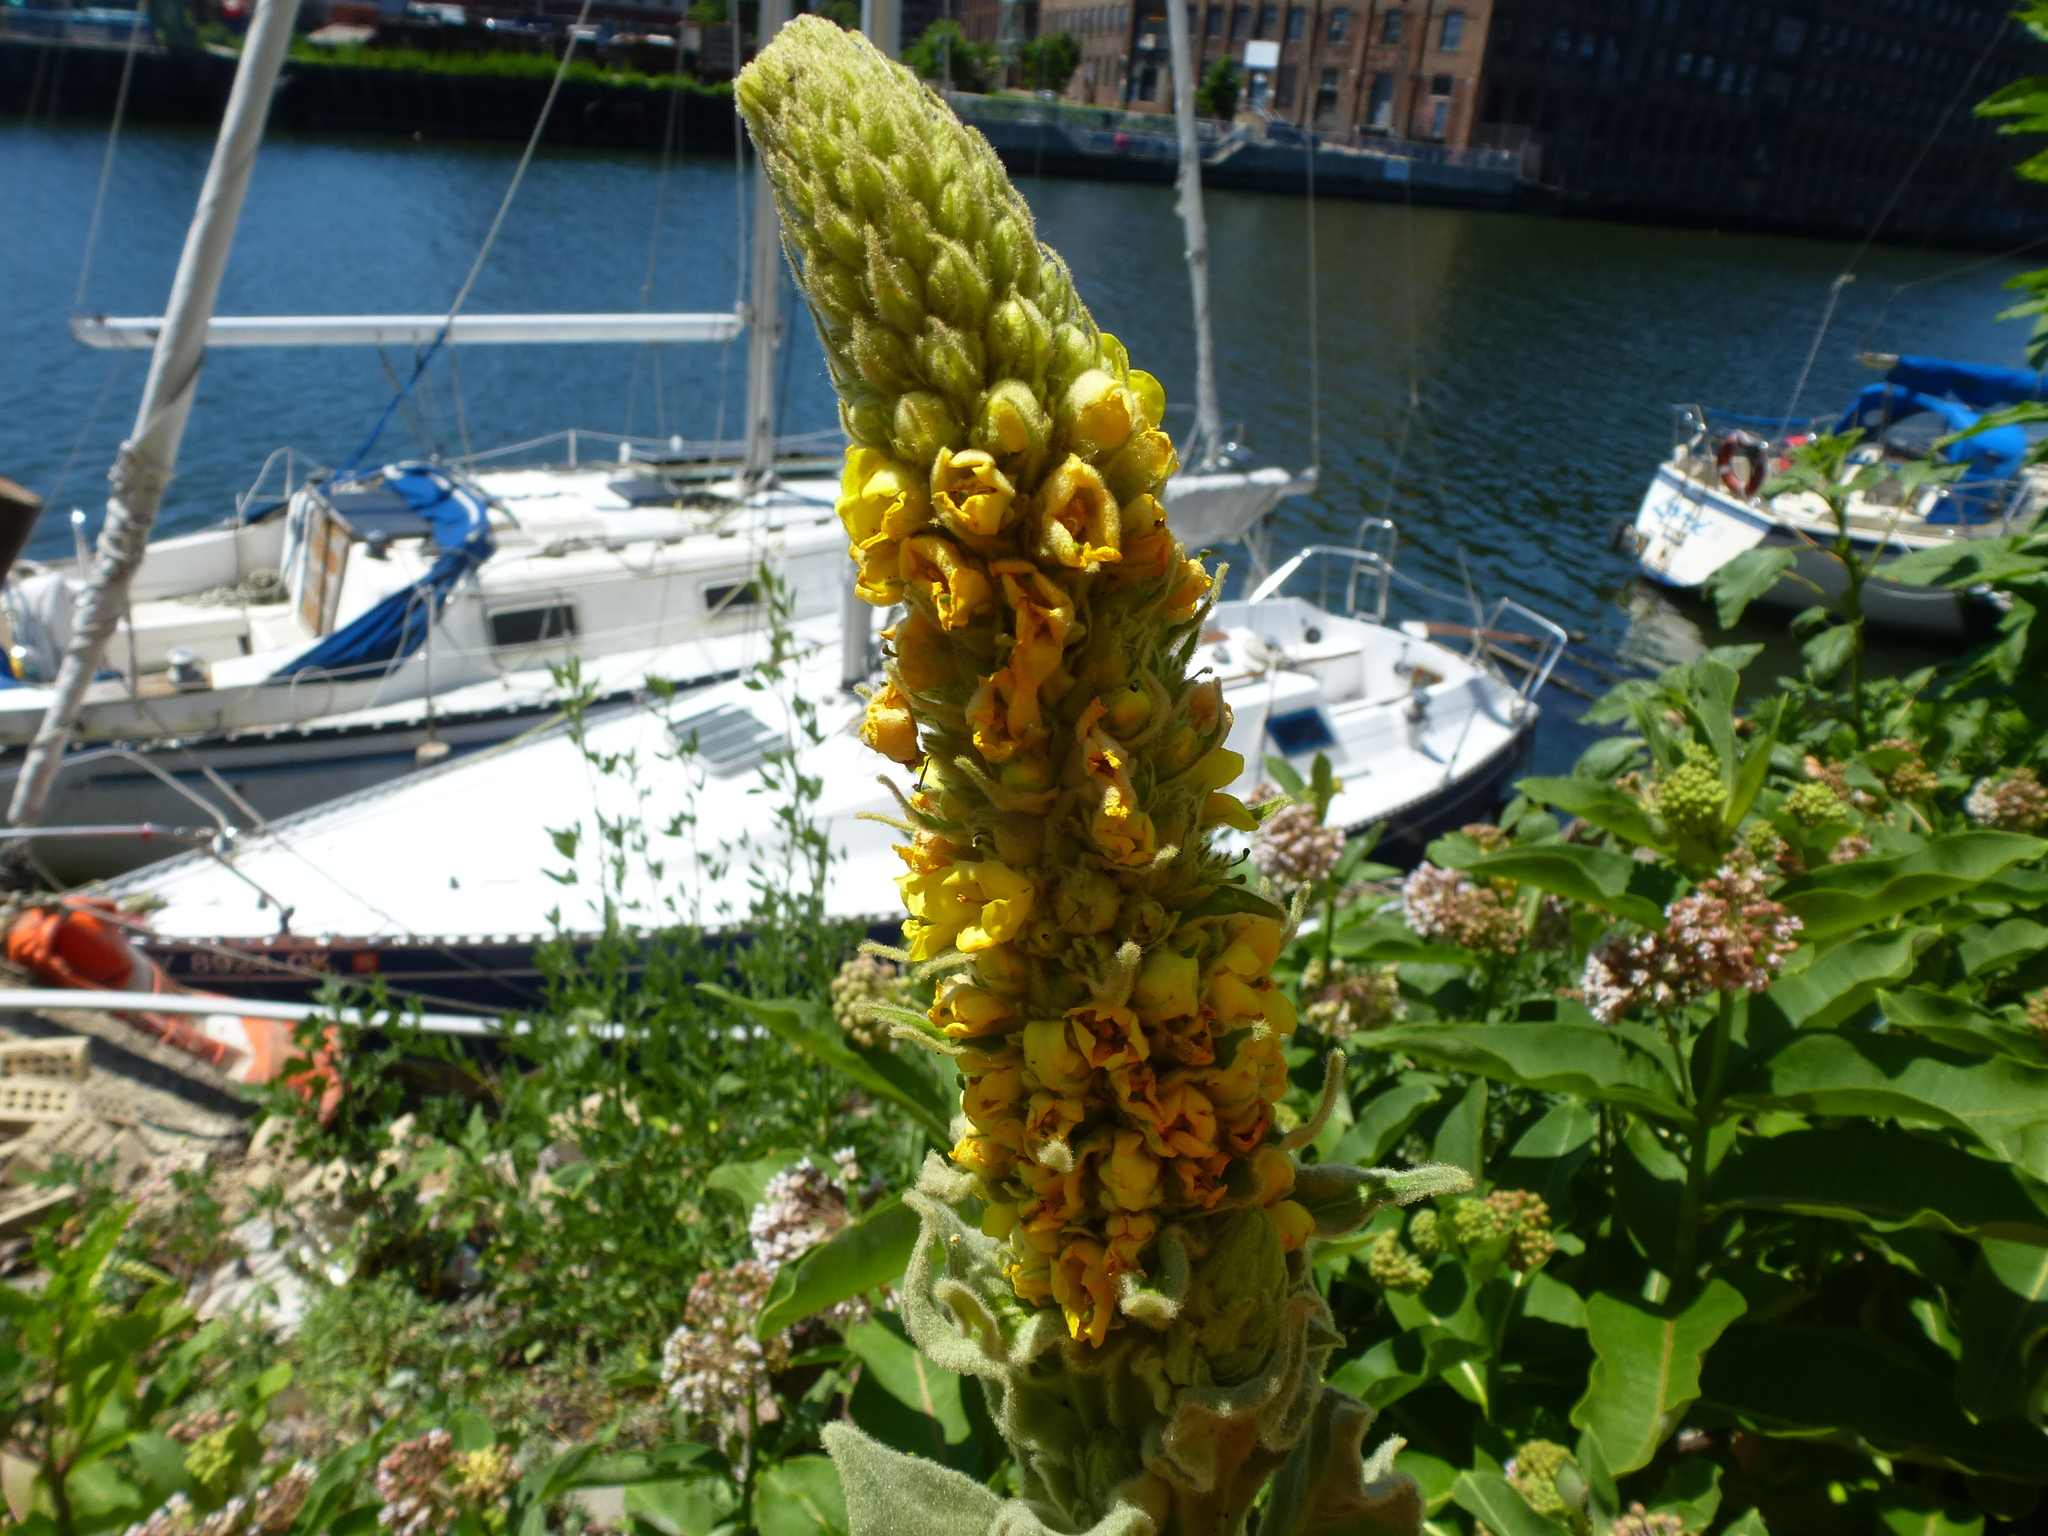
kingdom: Plantae
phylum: Tracheophyta
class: Magnoliopsida
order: Lamiales
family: Scrophulariaceae
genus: Verbascum
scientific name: Verbascum thapsus
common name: Common mullein
